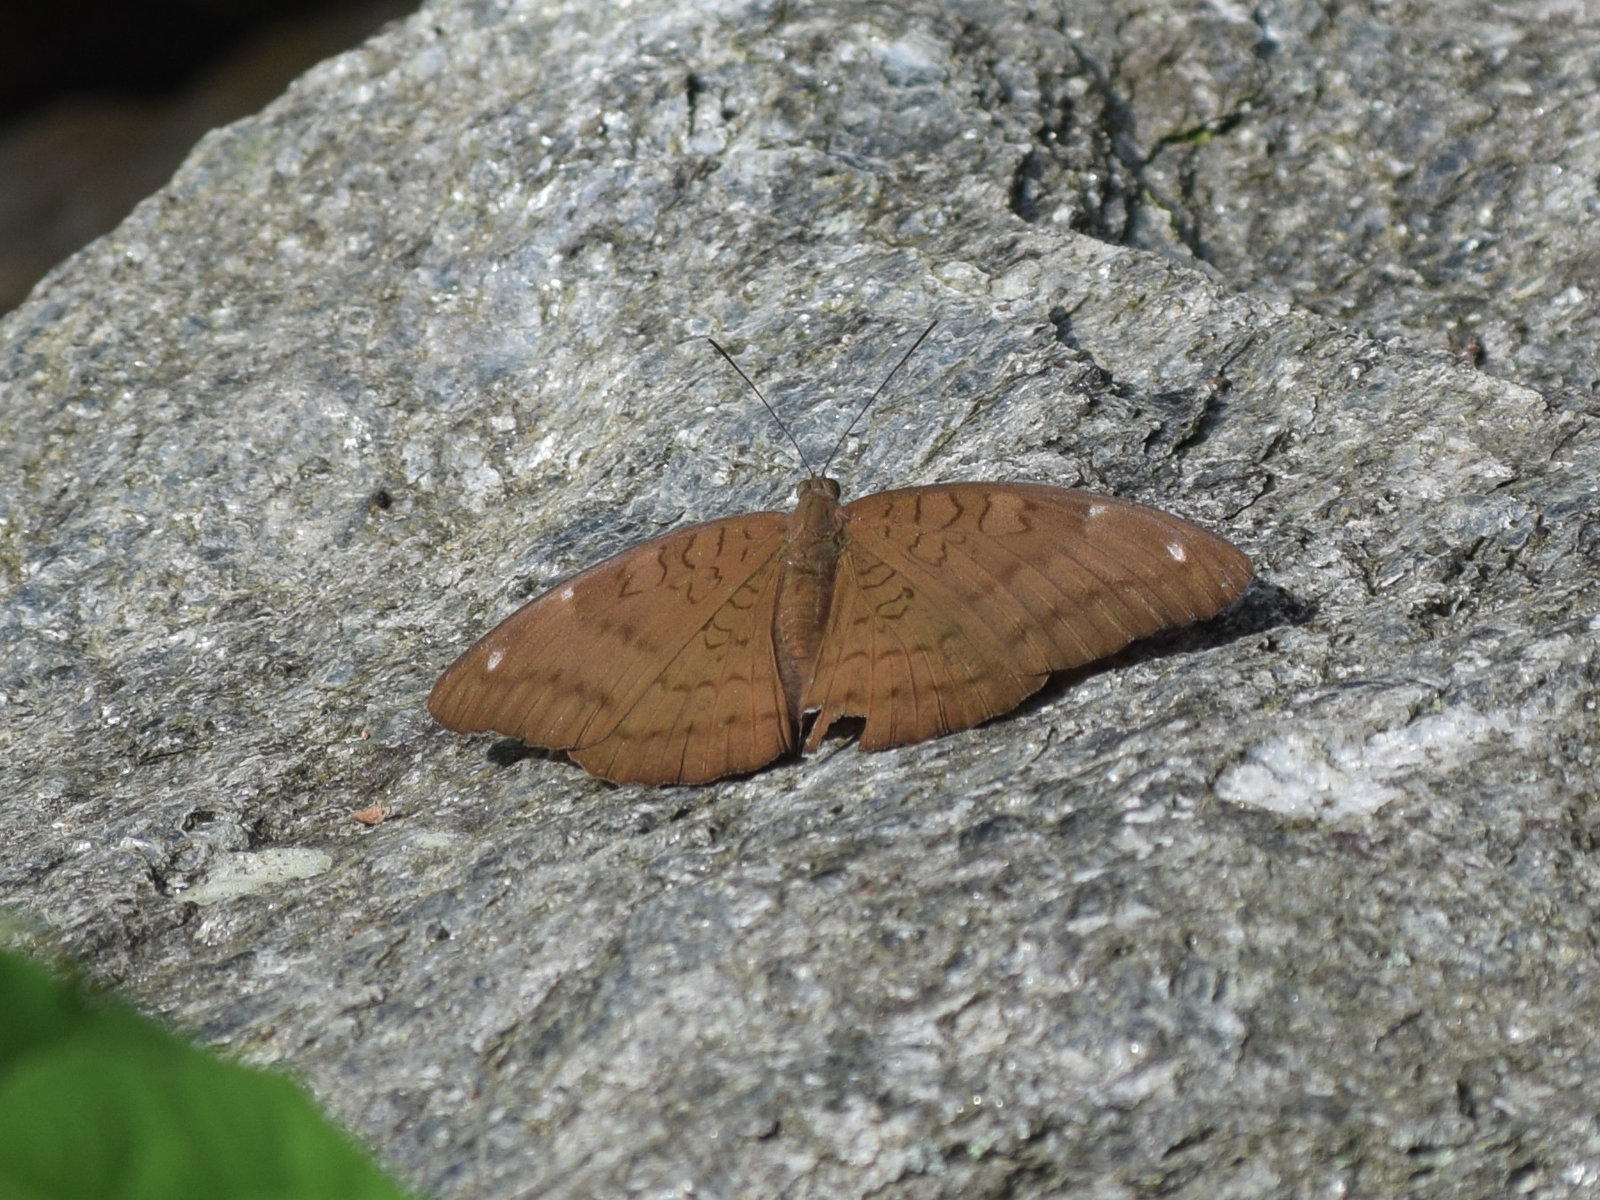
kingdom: Animalia
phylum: Arthropoda
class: Insecta
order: Lepidoptera
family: Nymphalidae
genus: Tanaecia
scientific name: Tanaecia julii
